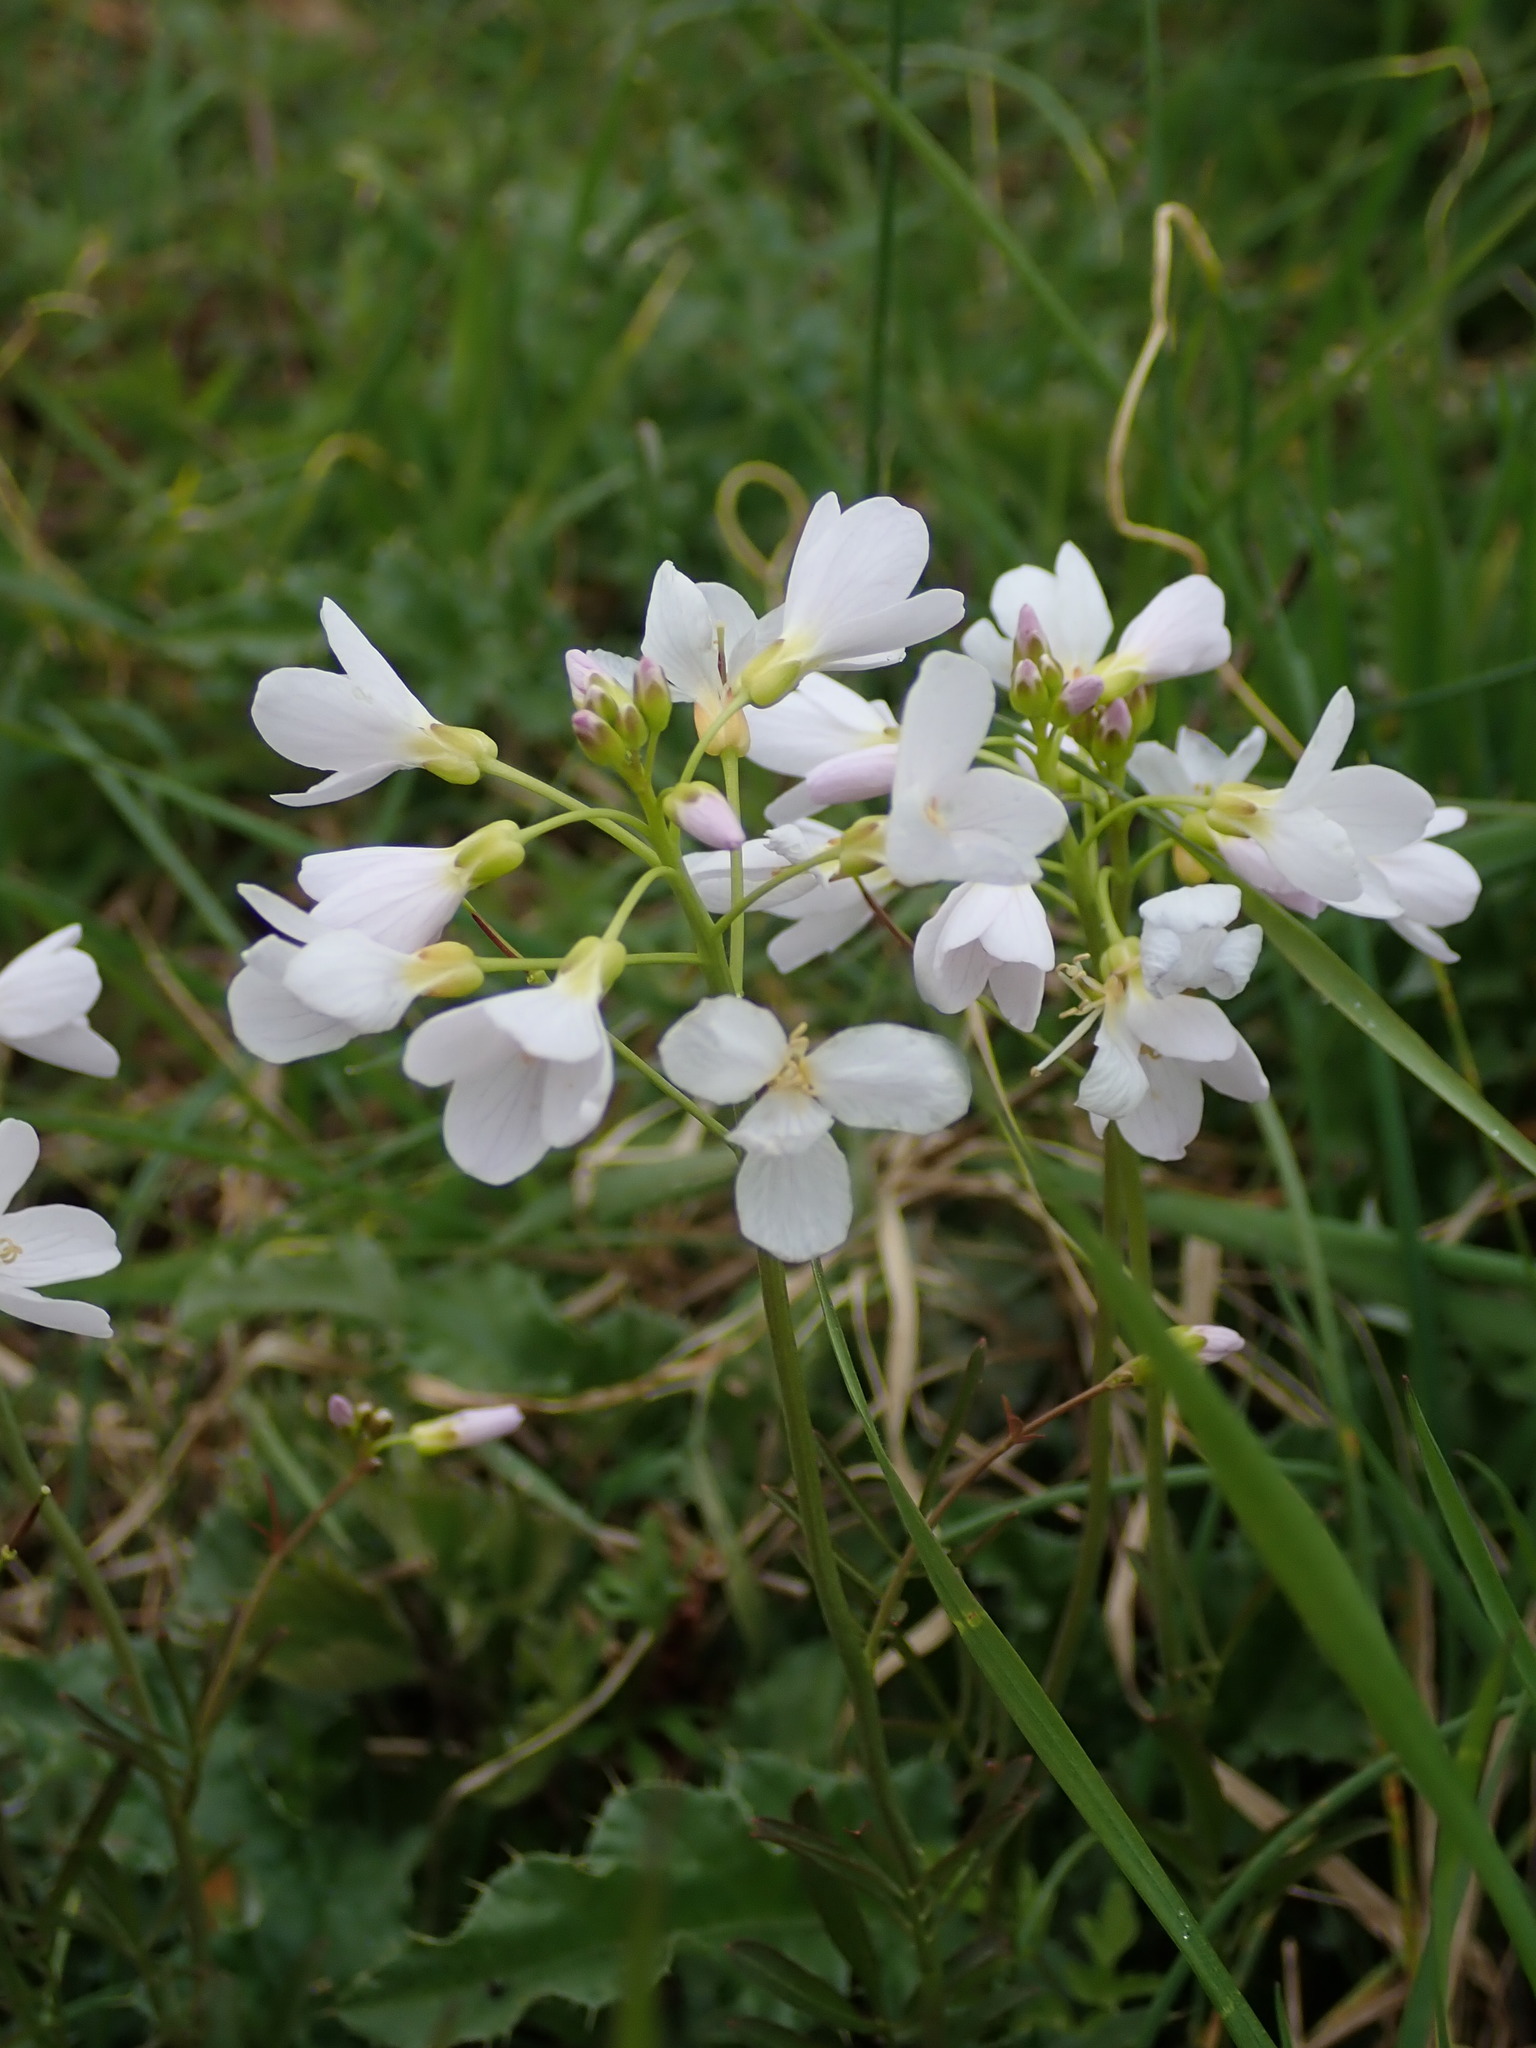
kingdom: Plantae
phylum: Tracheophyta
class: Magnoliopsida
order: Brassicales
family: Brassicaceae
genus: Cardamine
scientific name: Cardamine pratensis
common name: Cuckoo flower
